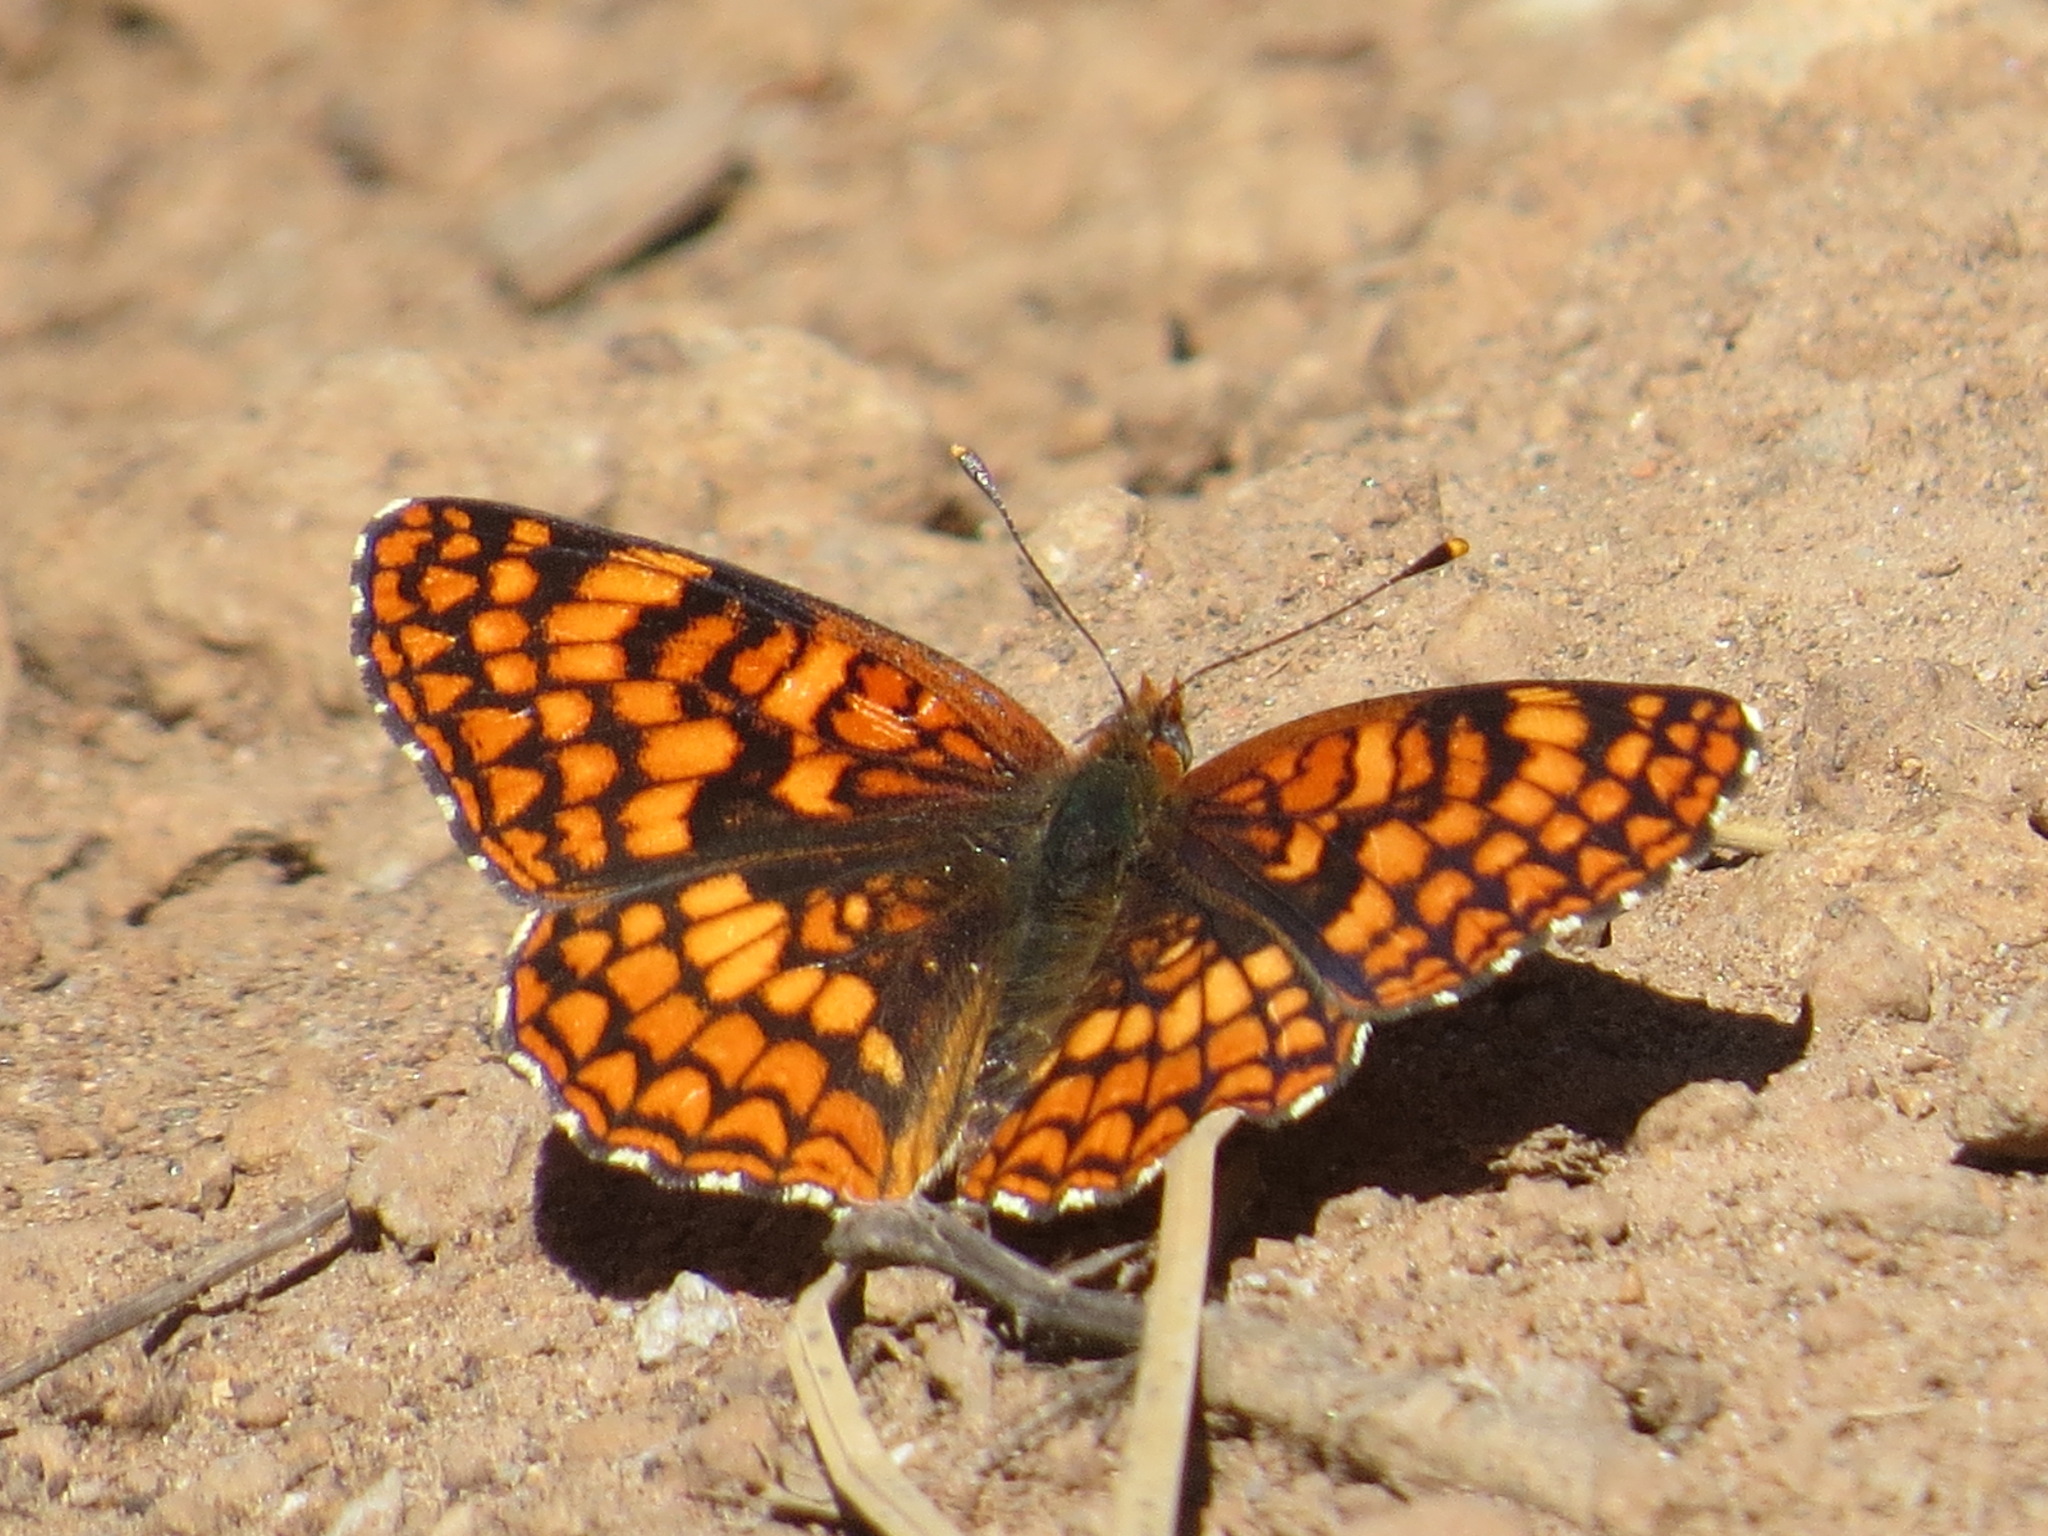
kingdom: Animalia
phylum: Arthropoda
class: Insecta
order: Lepidoptera
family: Nymphalidae
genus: Chlosyne
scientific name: Chlosyne palla
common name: Northern checkerspot
